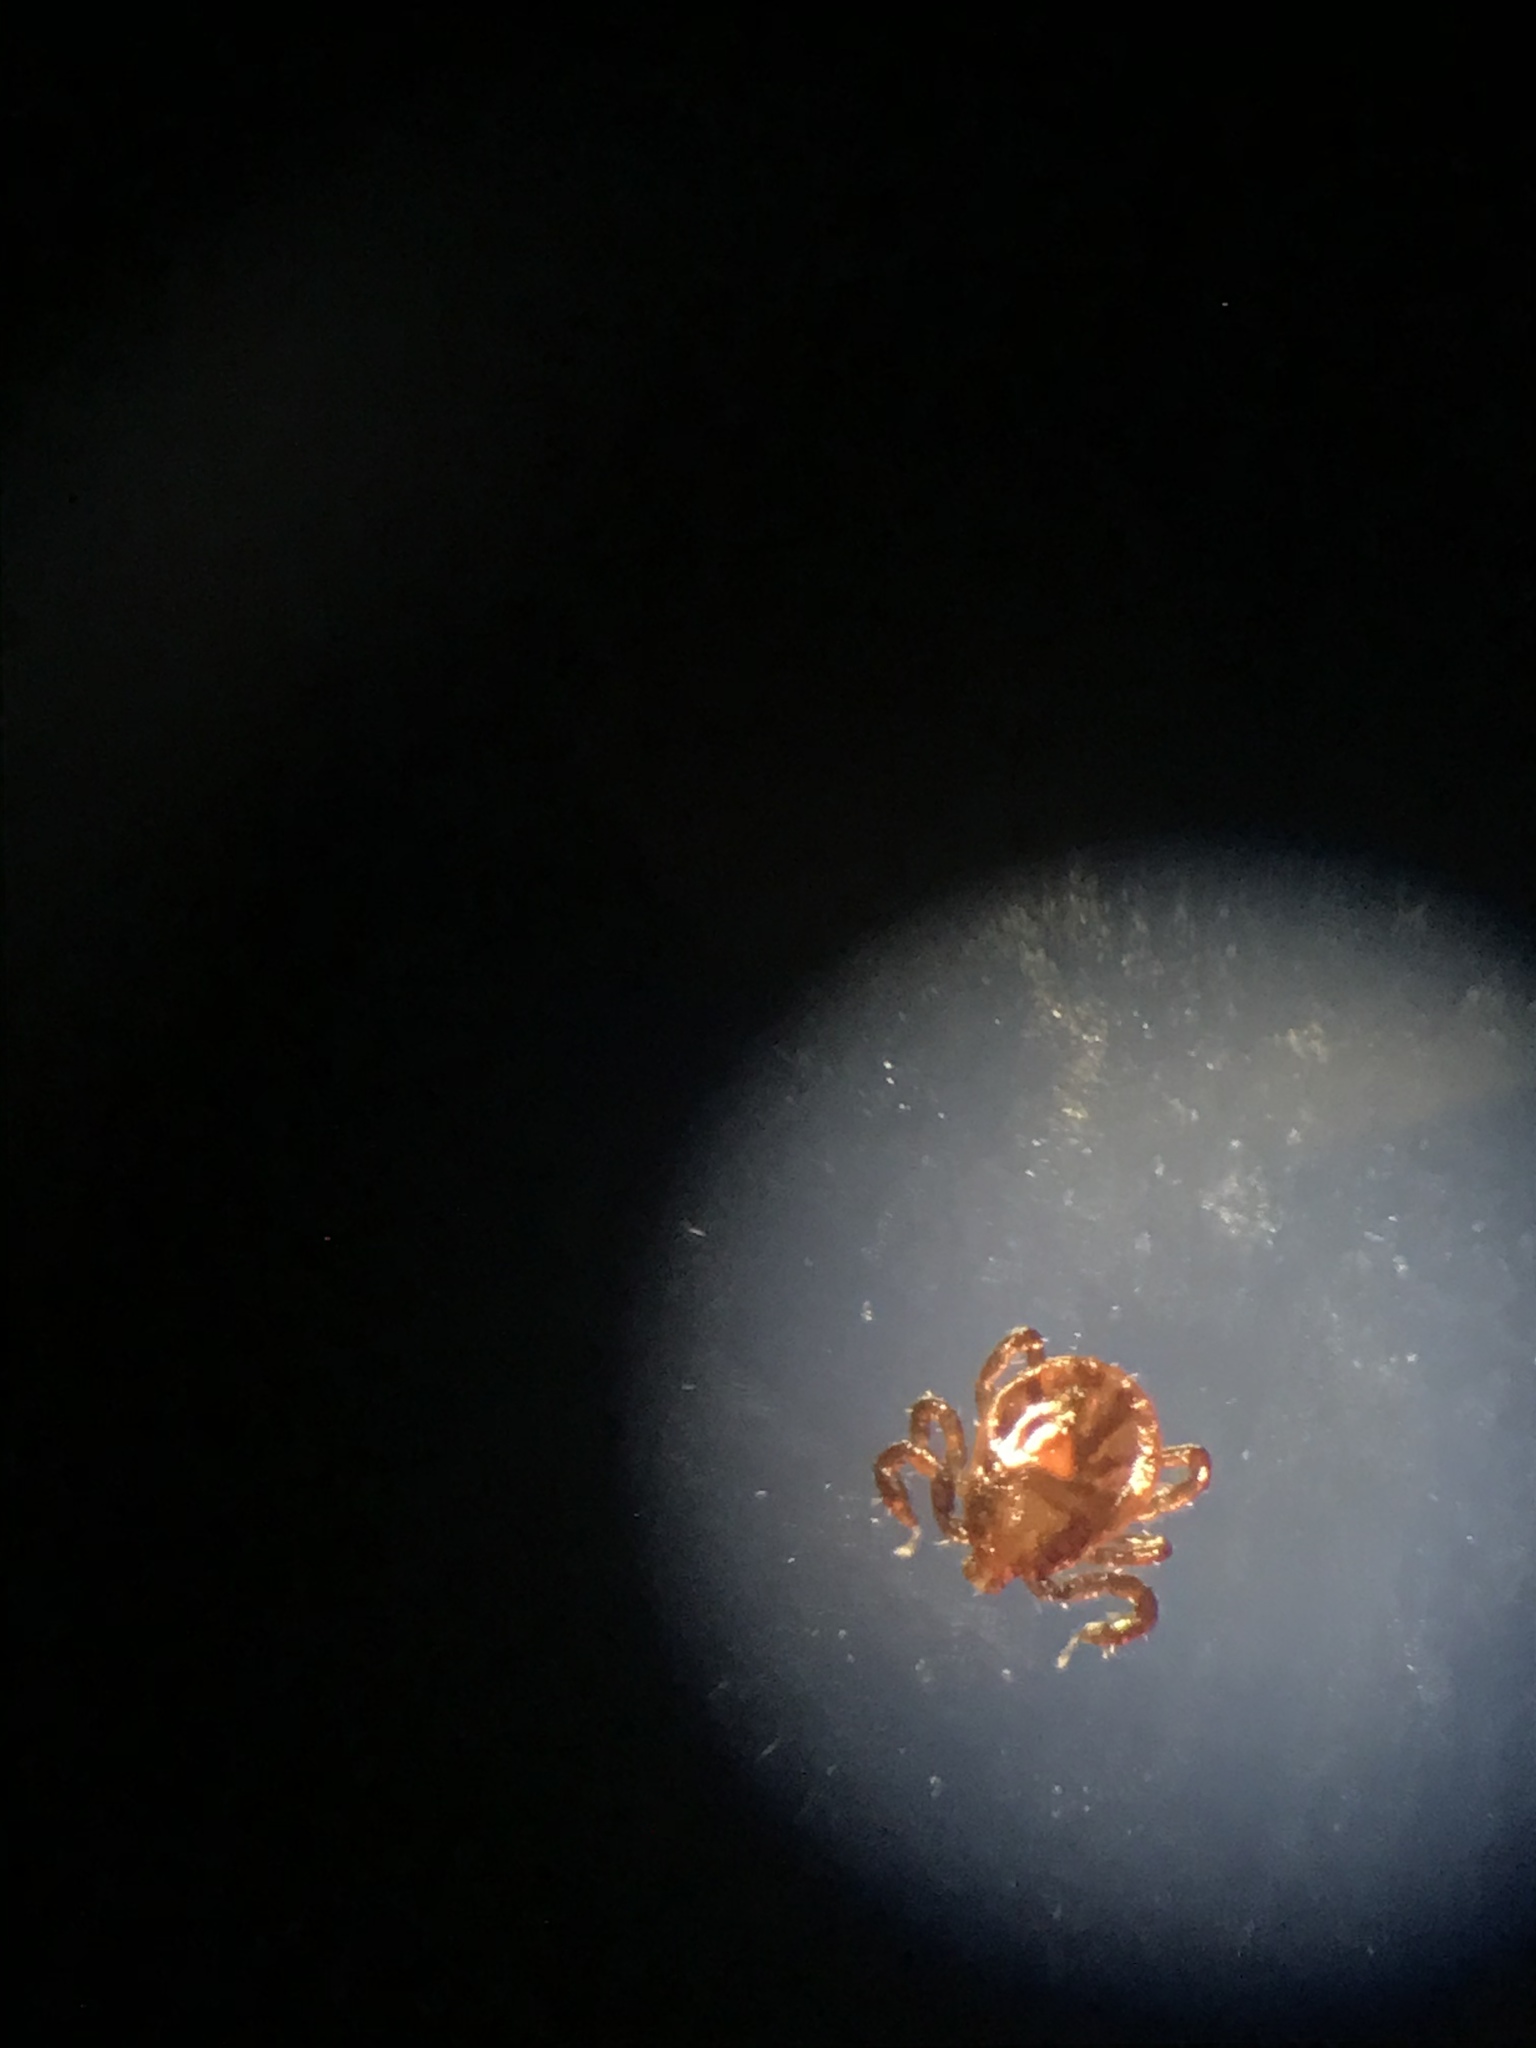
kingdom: Animalia
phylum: Arthropoda
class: Arachnida
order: Ixodida
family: Ixodidae
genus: Dermacentor
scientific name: Dermacentor albipictus
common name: Moose tick
